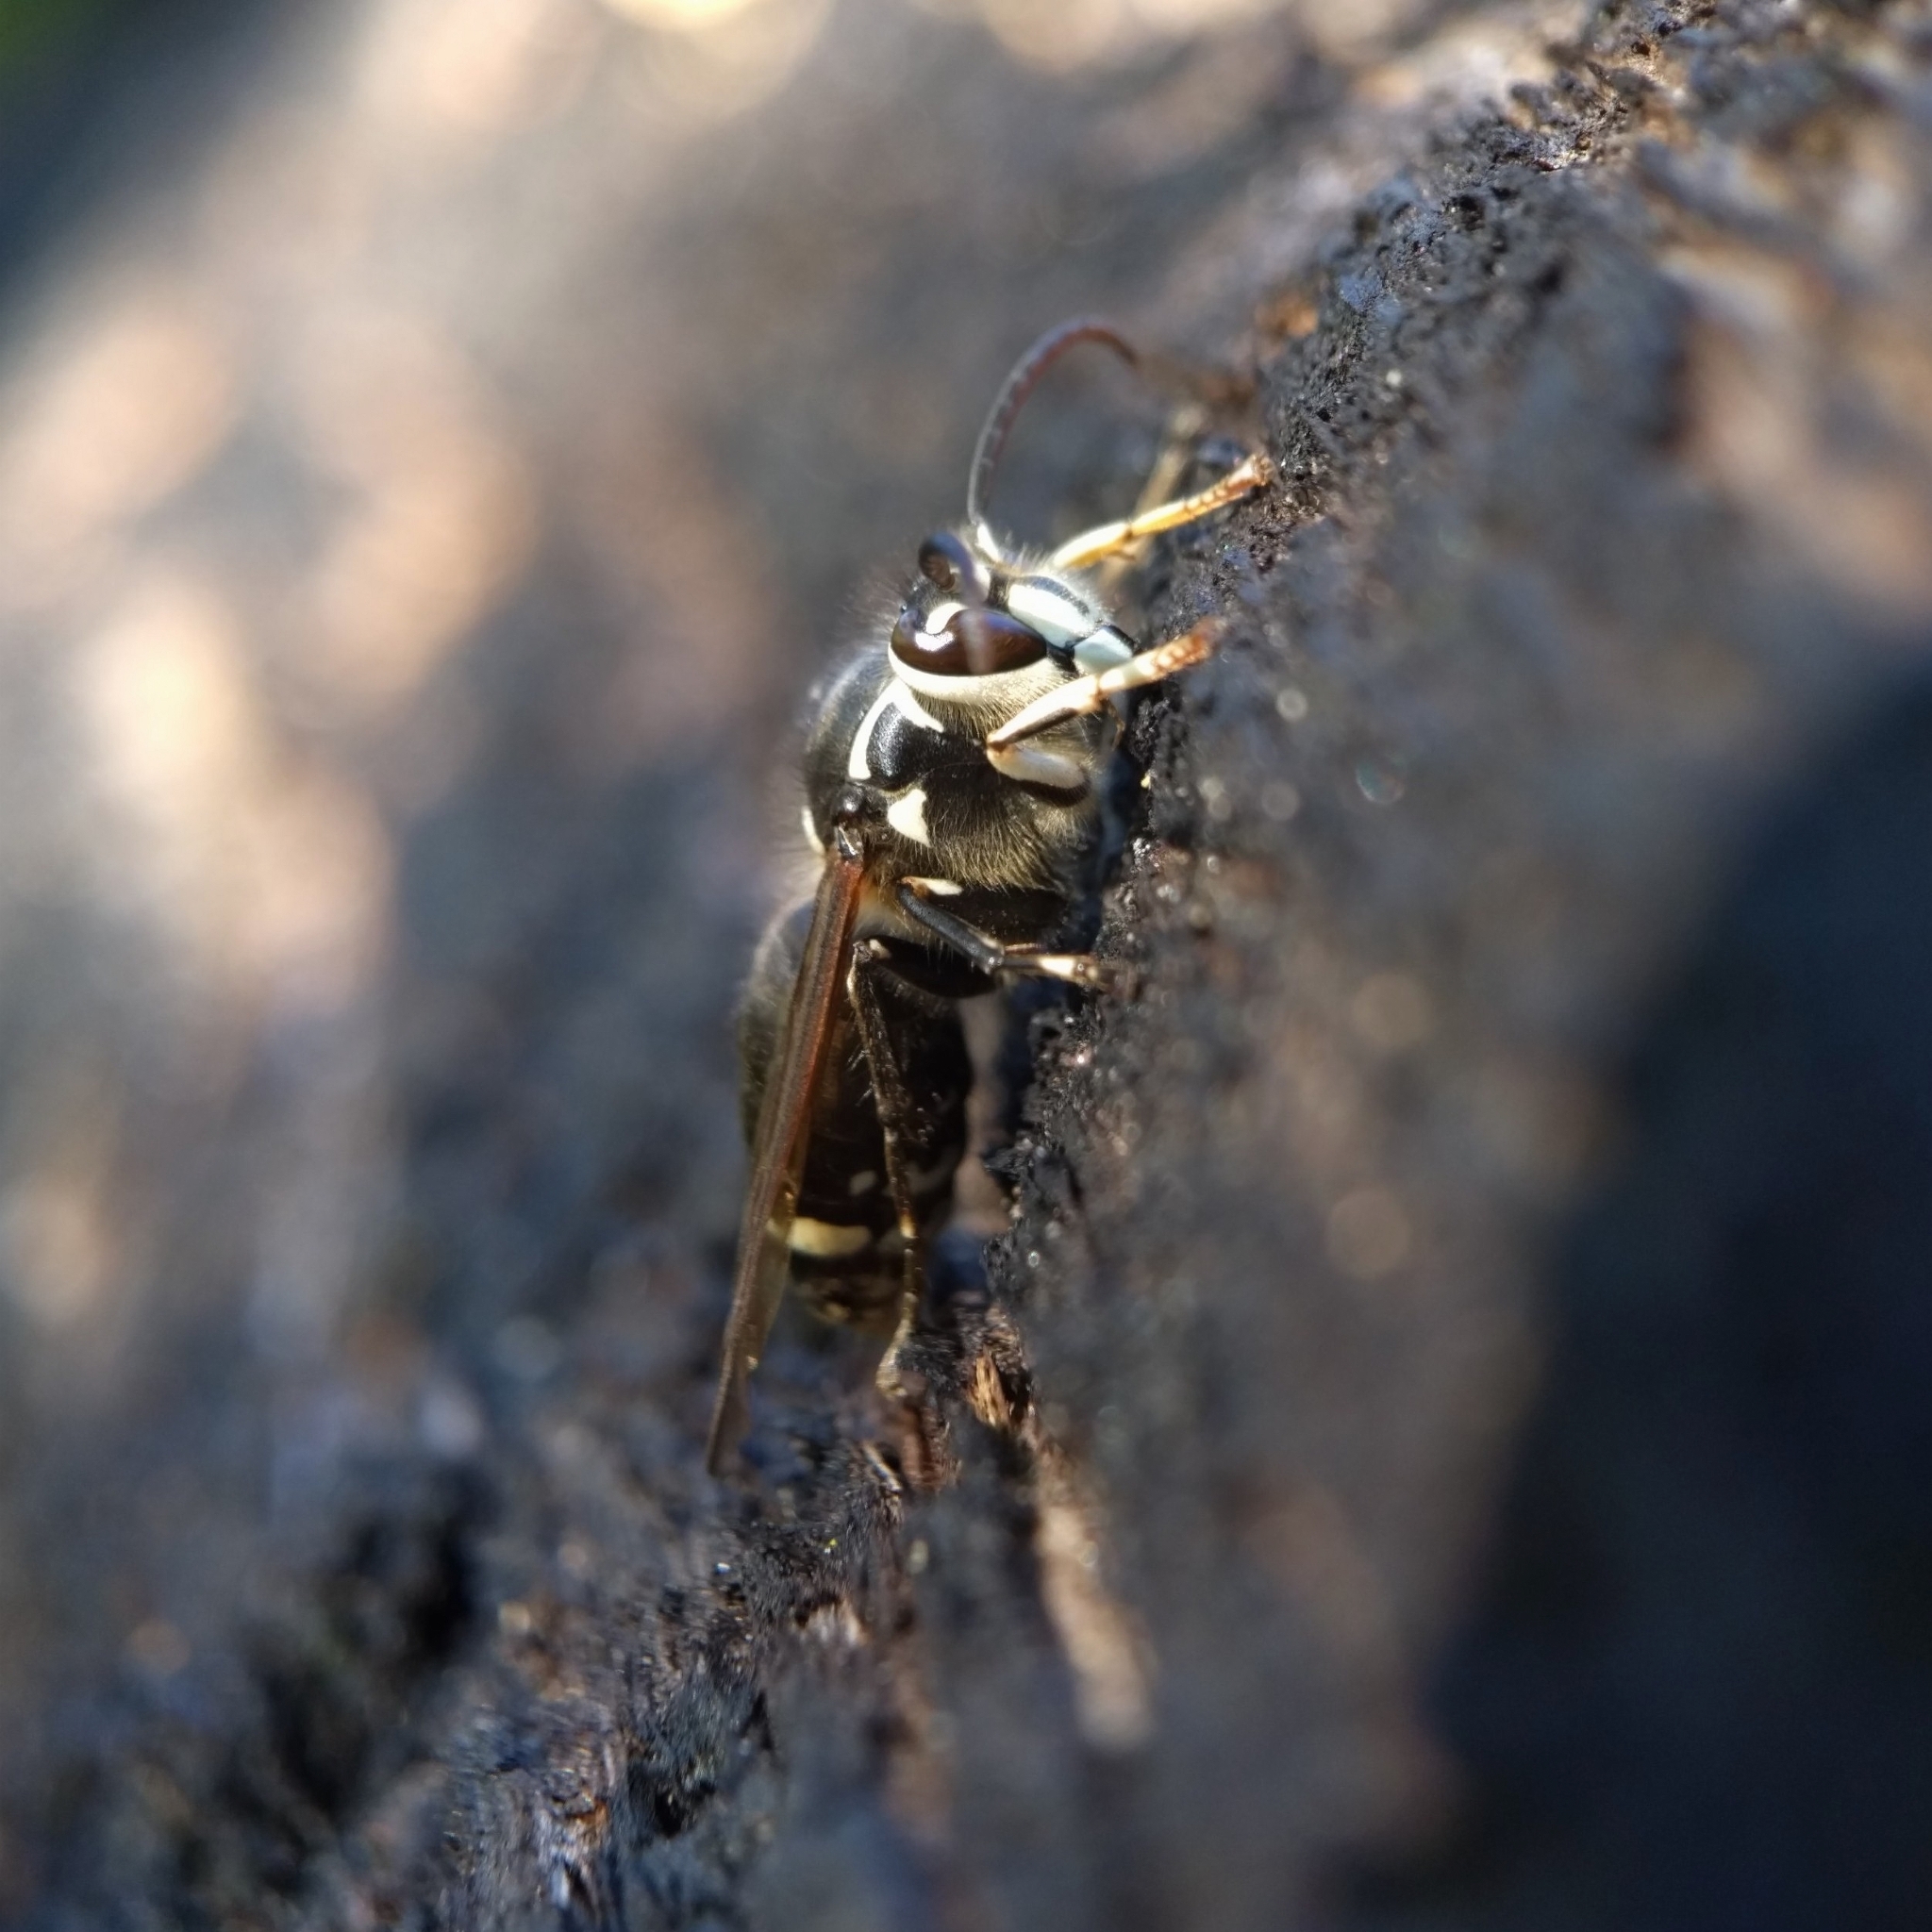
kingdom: Animalia
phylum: Arthropoda
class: Insecta
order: Hymenoptera
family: Vespidae
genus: Dolichovespula
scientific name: Dolichovespula maculata
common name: Bald-faced hornet
